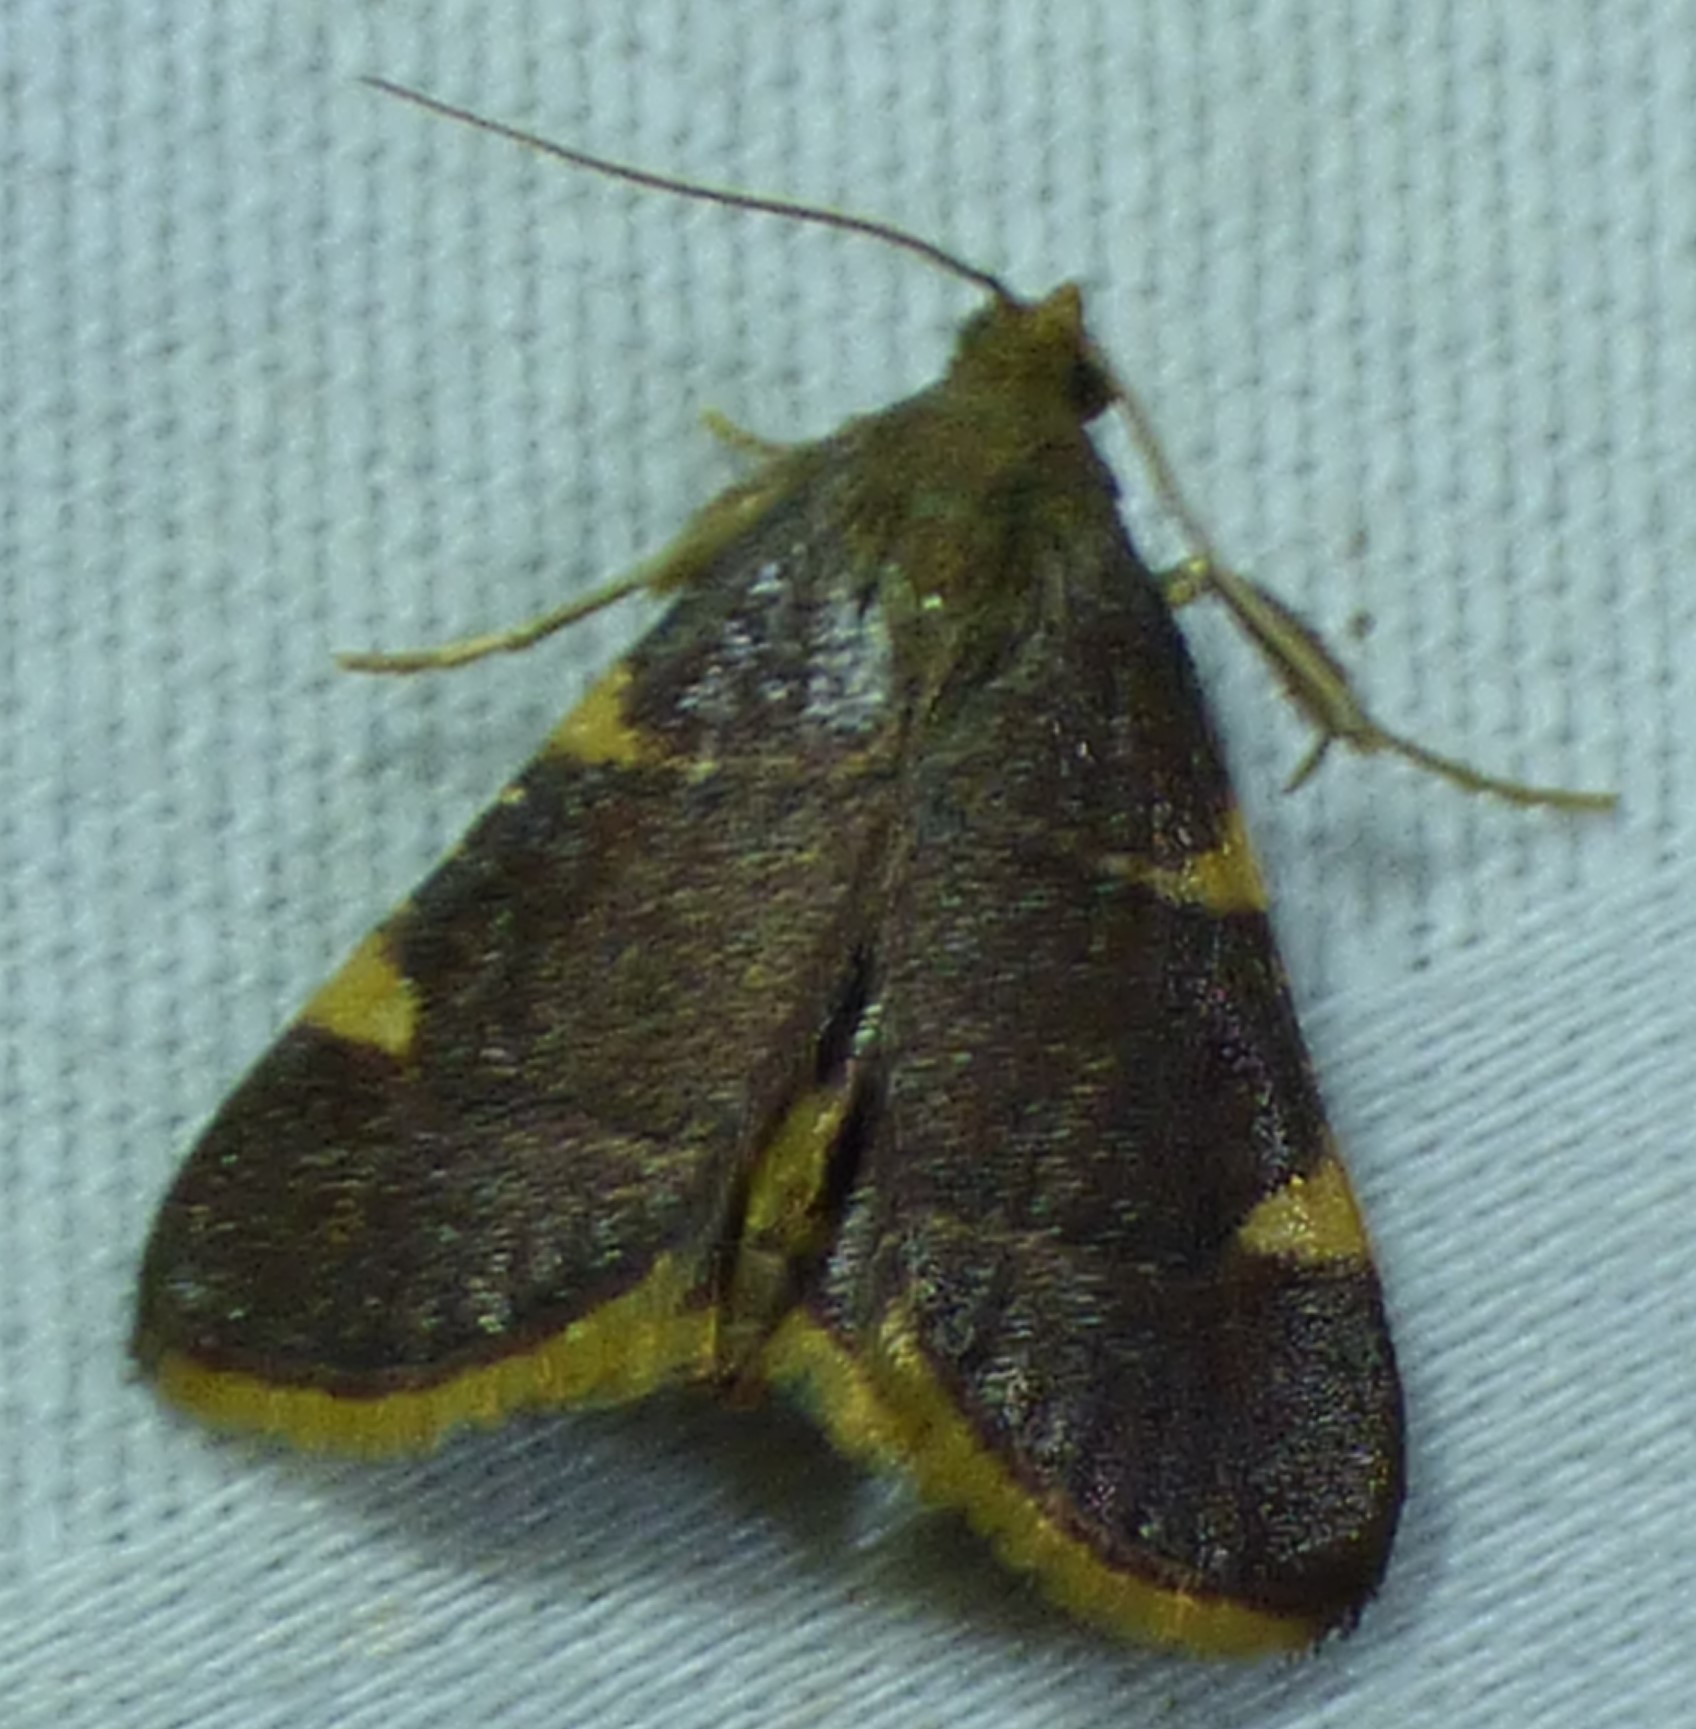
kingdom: Animalia
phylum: Arthropoda
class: Insecta
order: Lepidoptera
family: Pyralidae
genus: Hypsopygia
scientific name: Hypsopygia olinalis
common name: Yellow-fringed dolichomia moth
